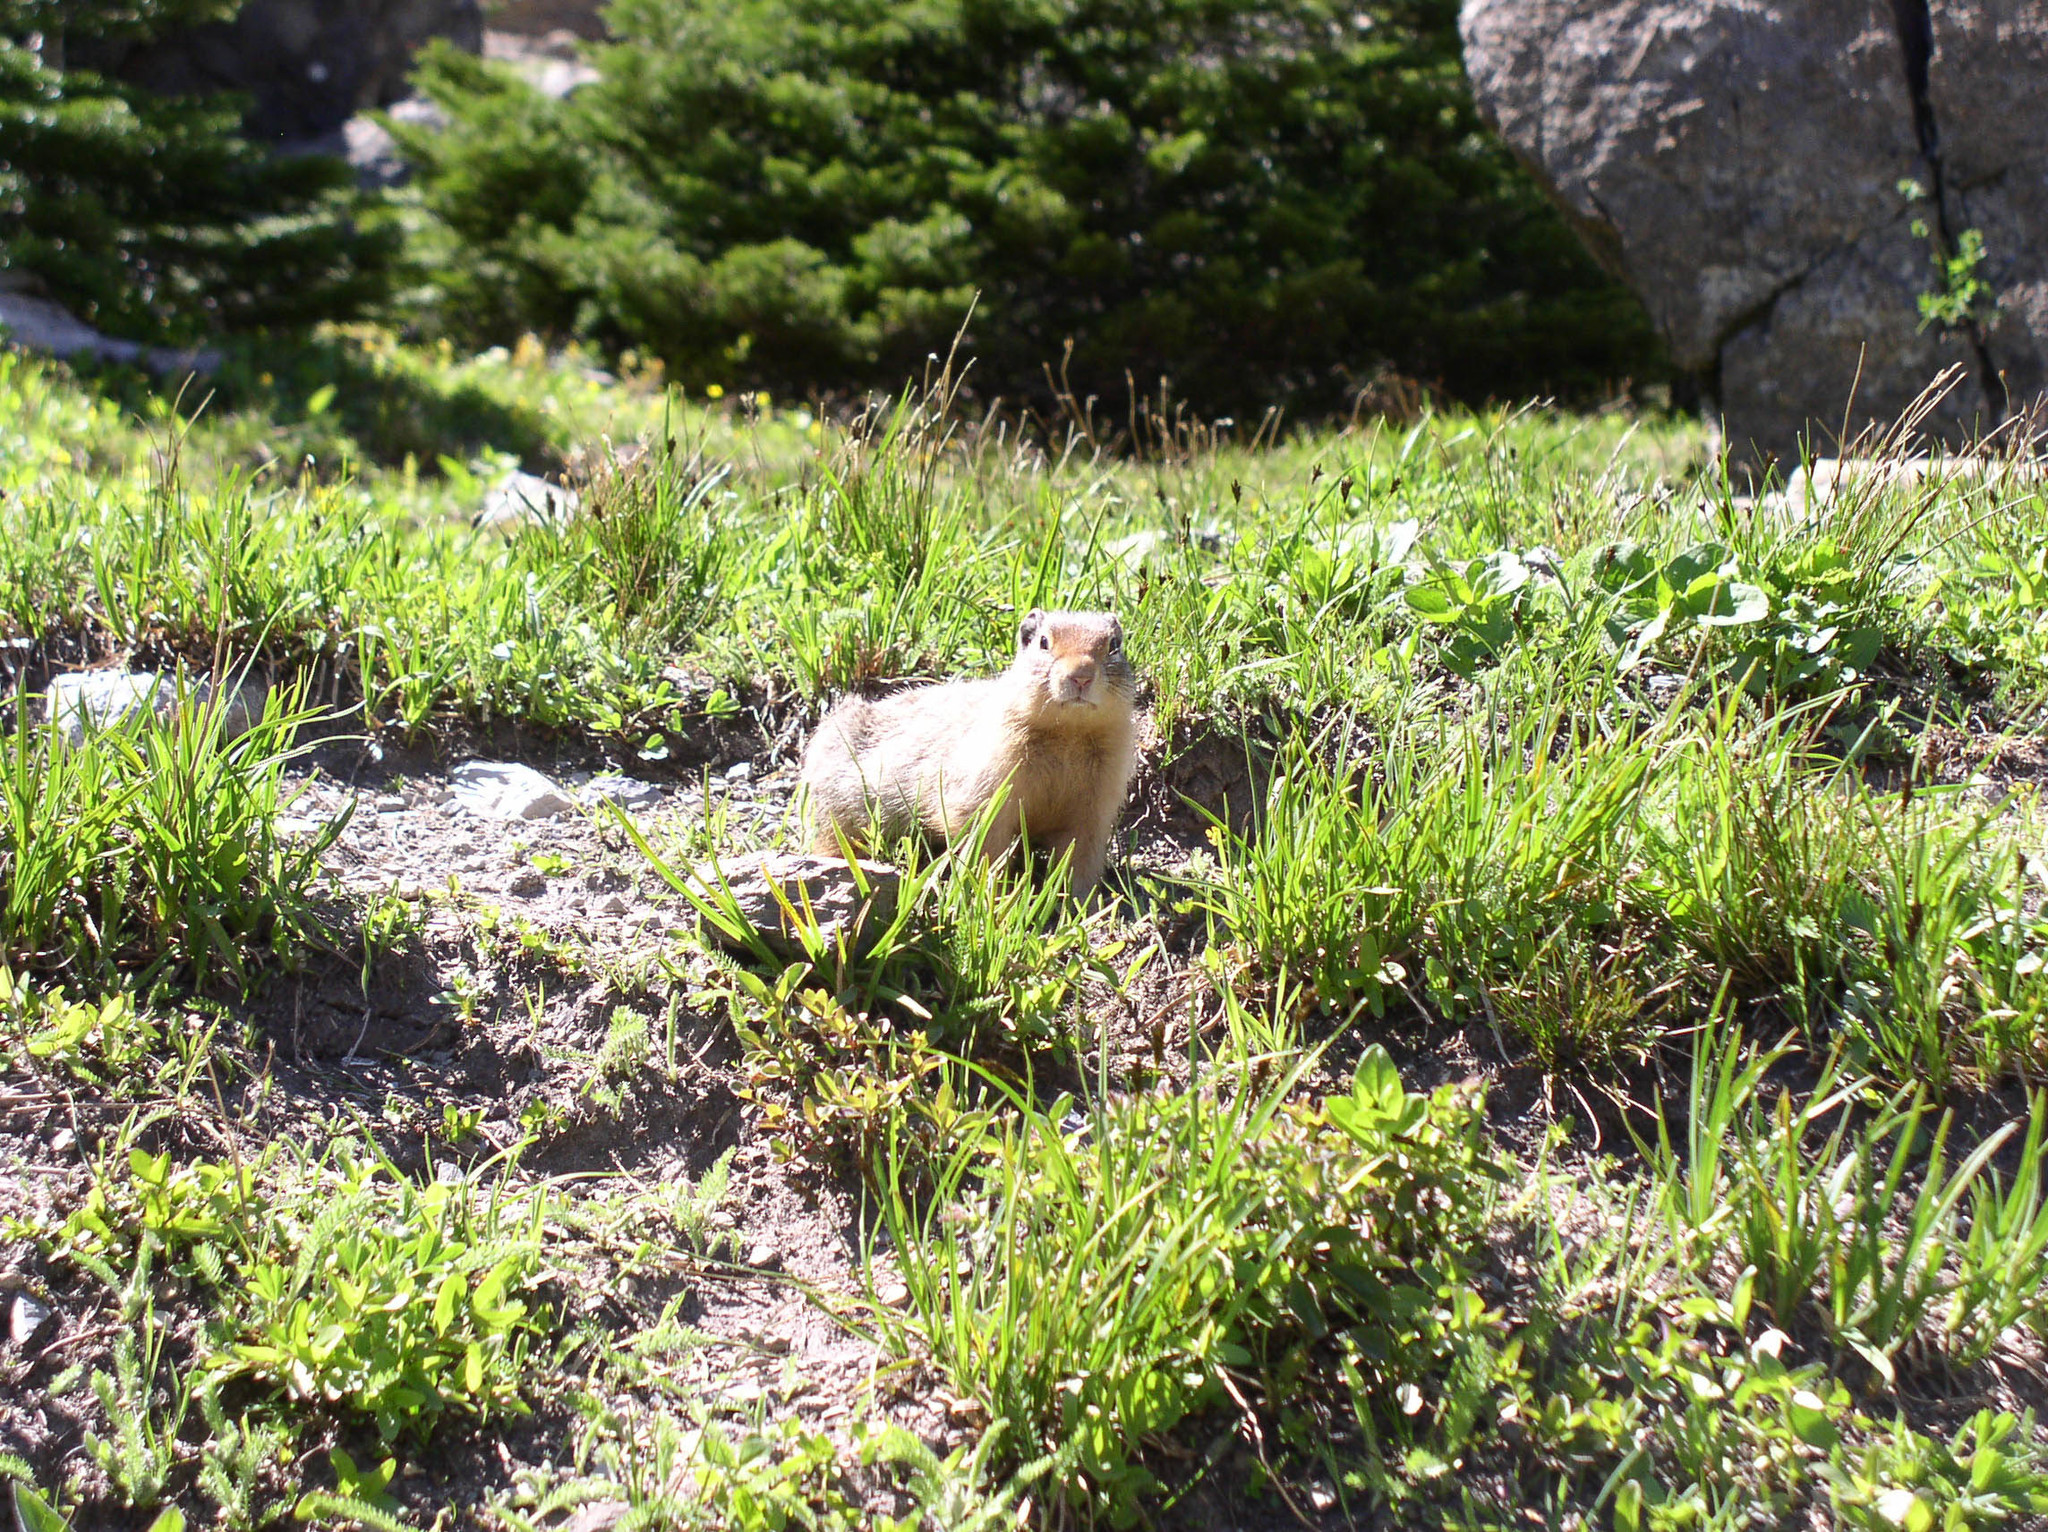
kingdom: Animalia
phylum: Chordata
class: Mammalia
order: Rodentia
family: Sciuridae
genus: Urocitellus
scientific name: Urocitellus columbianus
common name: Columbian ground squirrel
